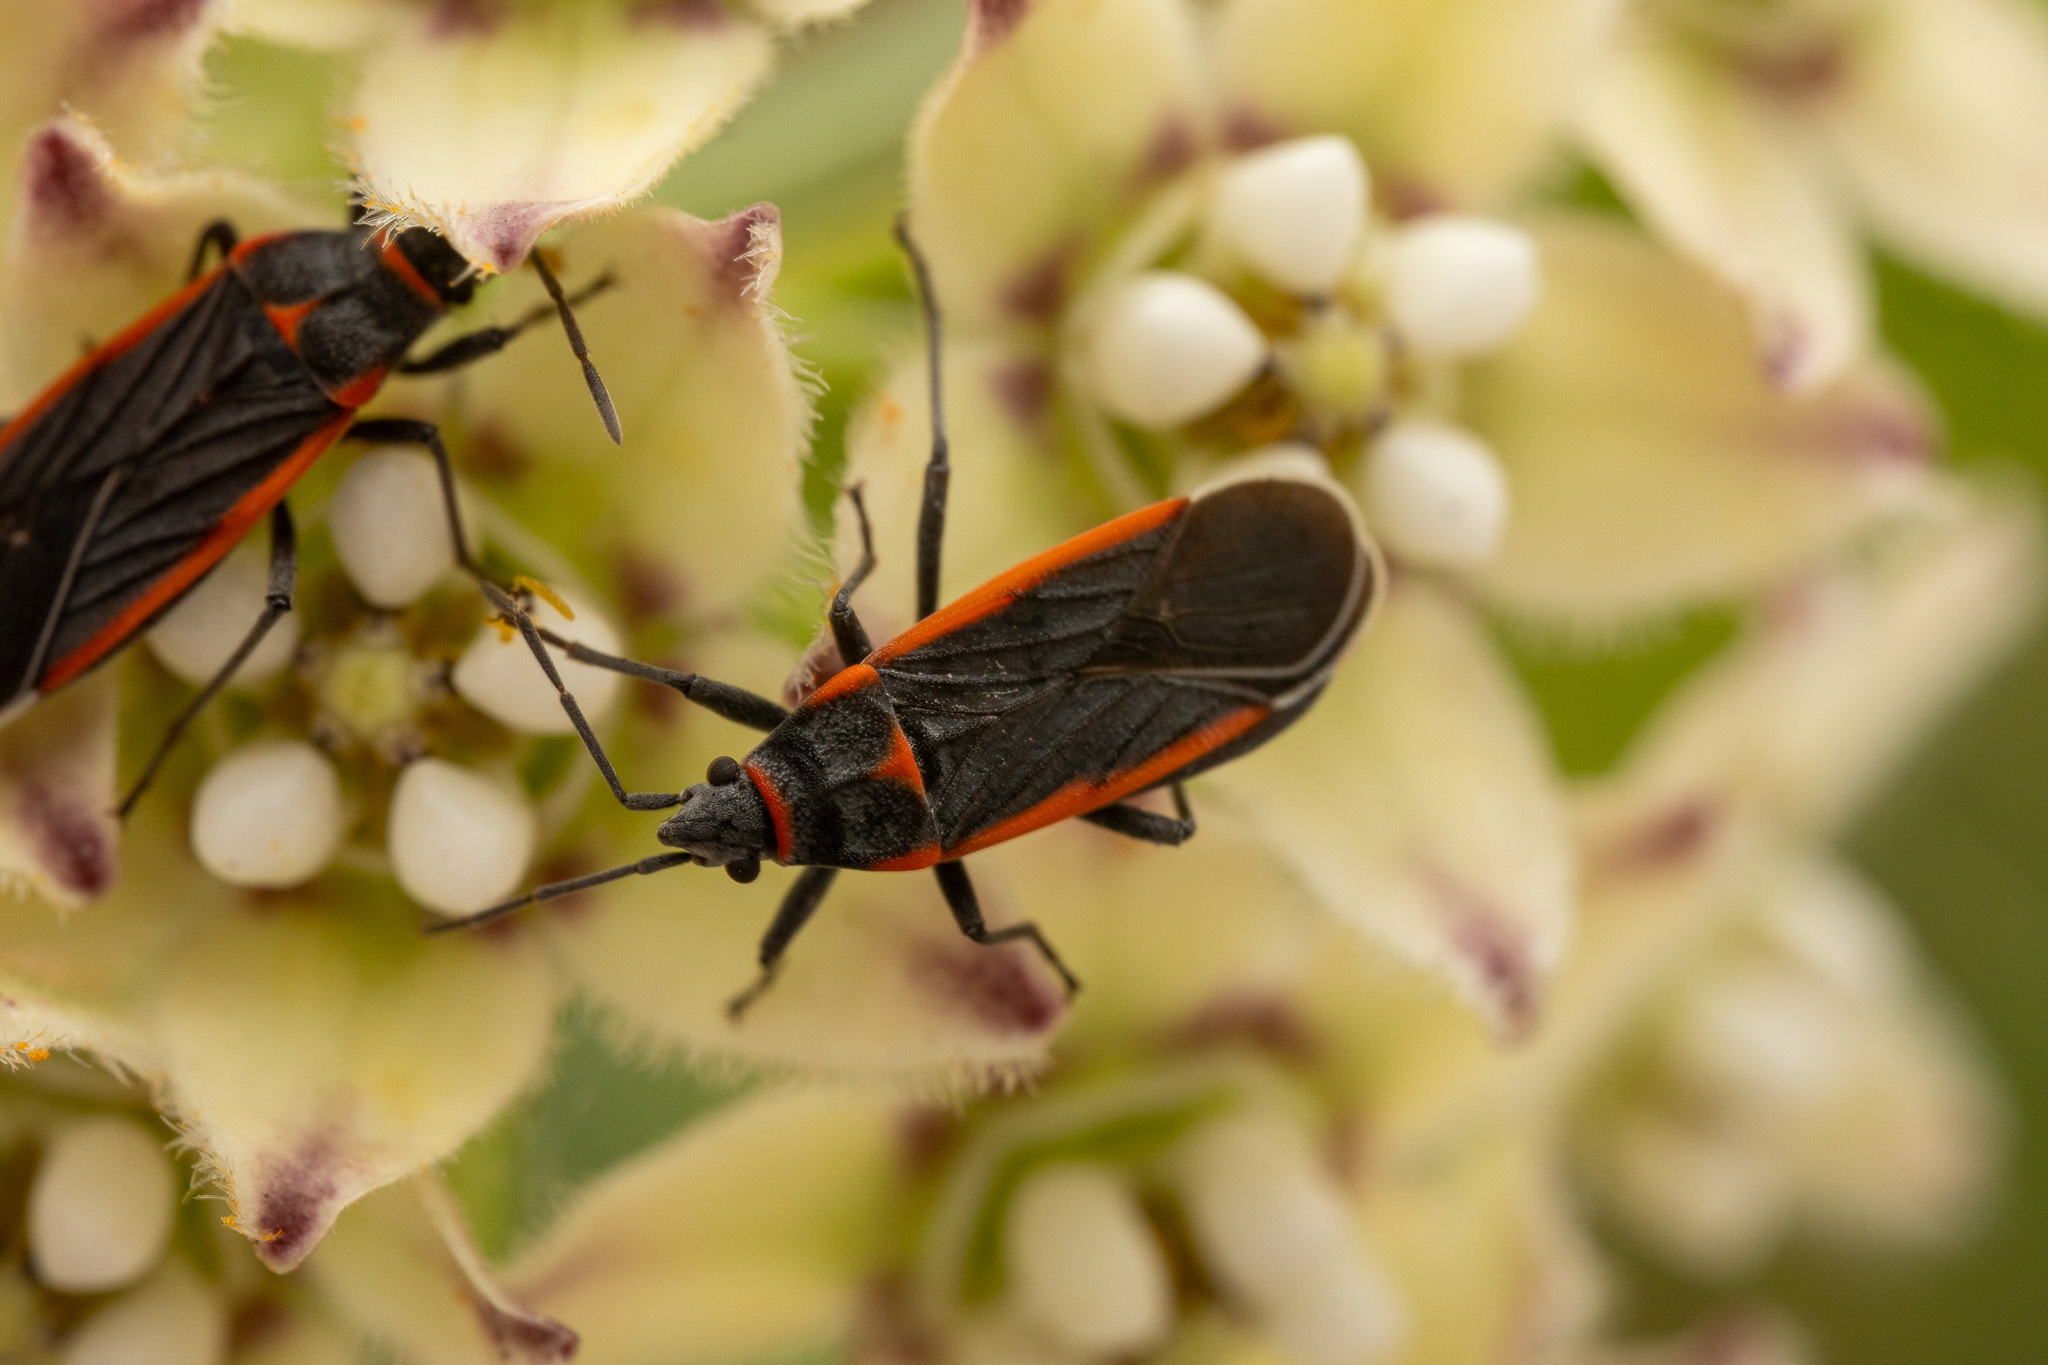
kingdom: Animalia
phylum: Arthropoda
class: Insecta
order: Hemiptera
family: Lygaeidae
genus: Melacoryphus
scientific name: Melacoryphus lateralis
